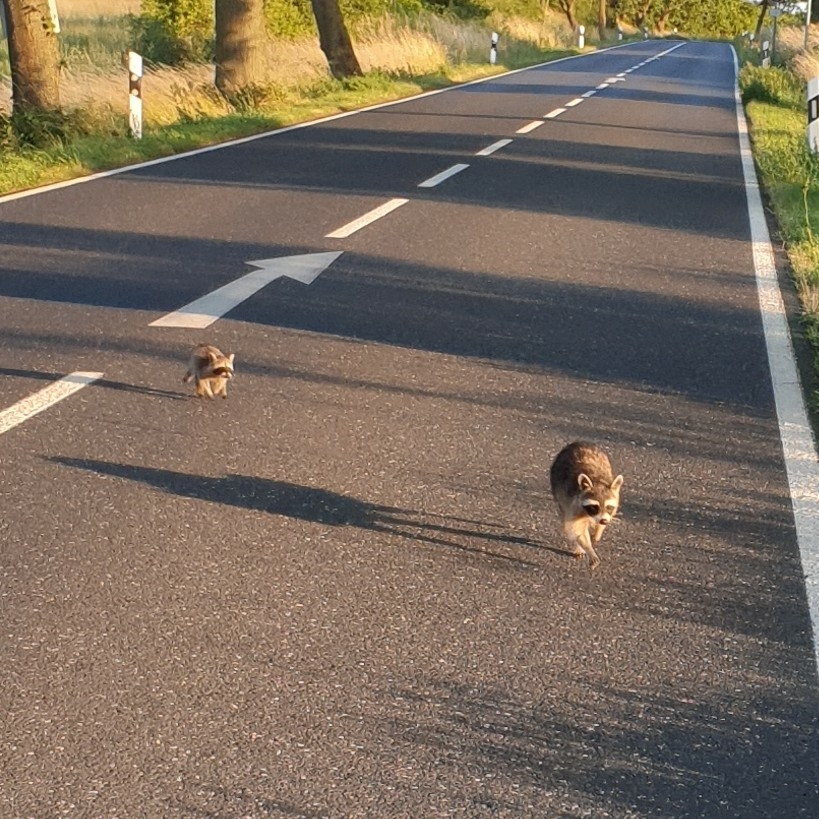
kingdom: Animalia
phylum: Chordata
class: Mammalia
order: Carnivora
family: Procyonidae
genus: Procyon
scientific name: Procyon lotor
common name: Raccoon
